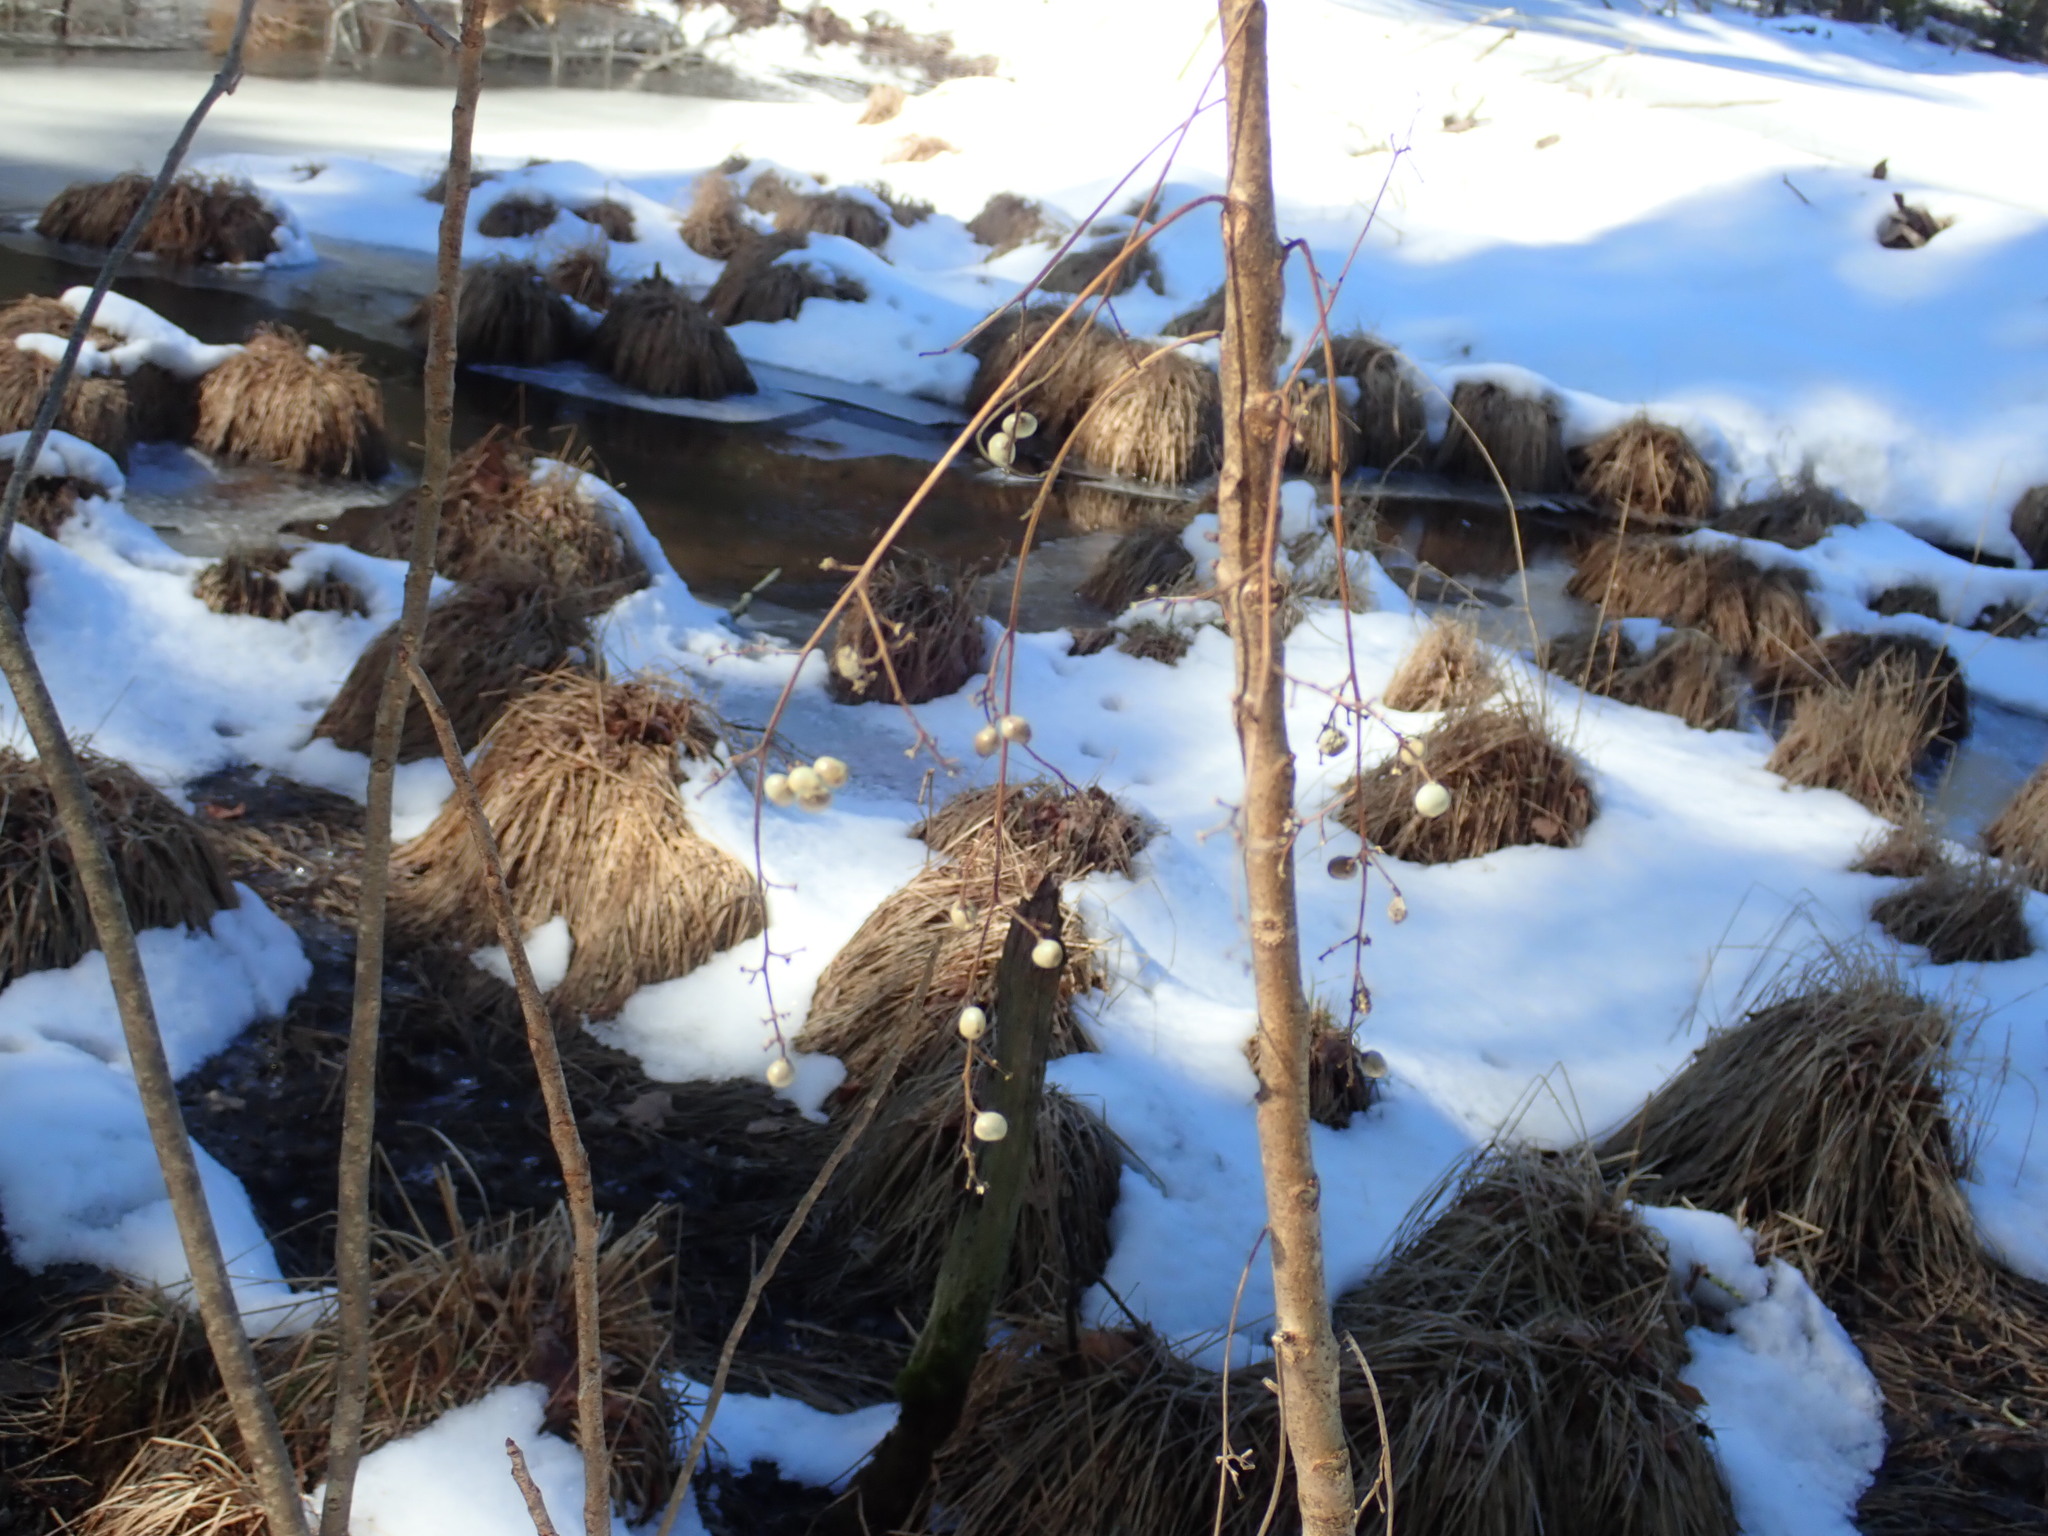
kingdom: Plantae
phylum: Tracheophyta
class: Magnoliopsida
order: Sapindales
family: Anacardiaceae
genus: Toxicodendron
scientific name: Toxicodendron vernix
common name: Poison sumac
